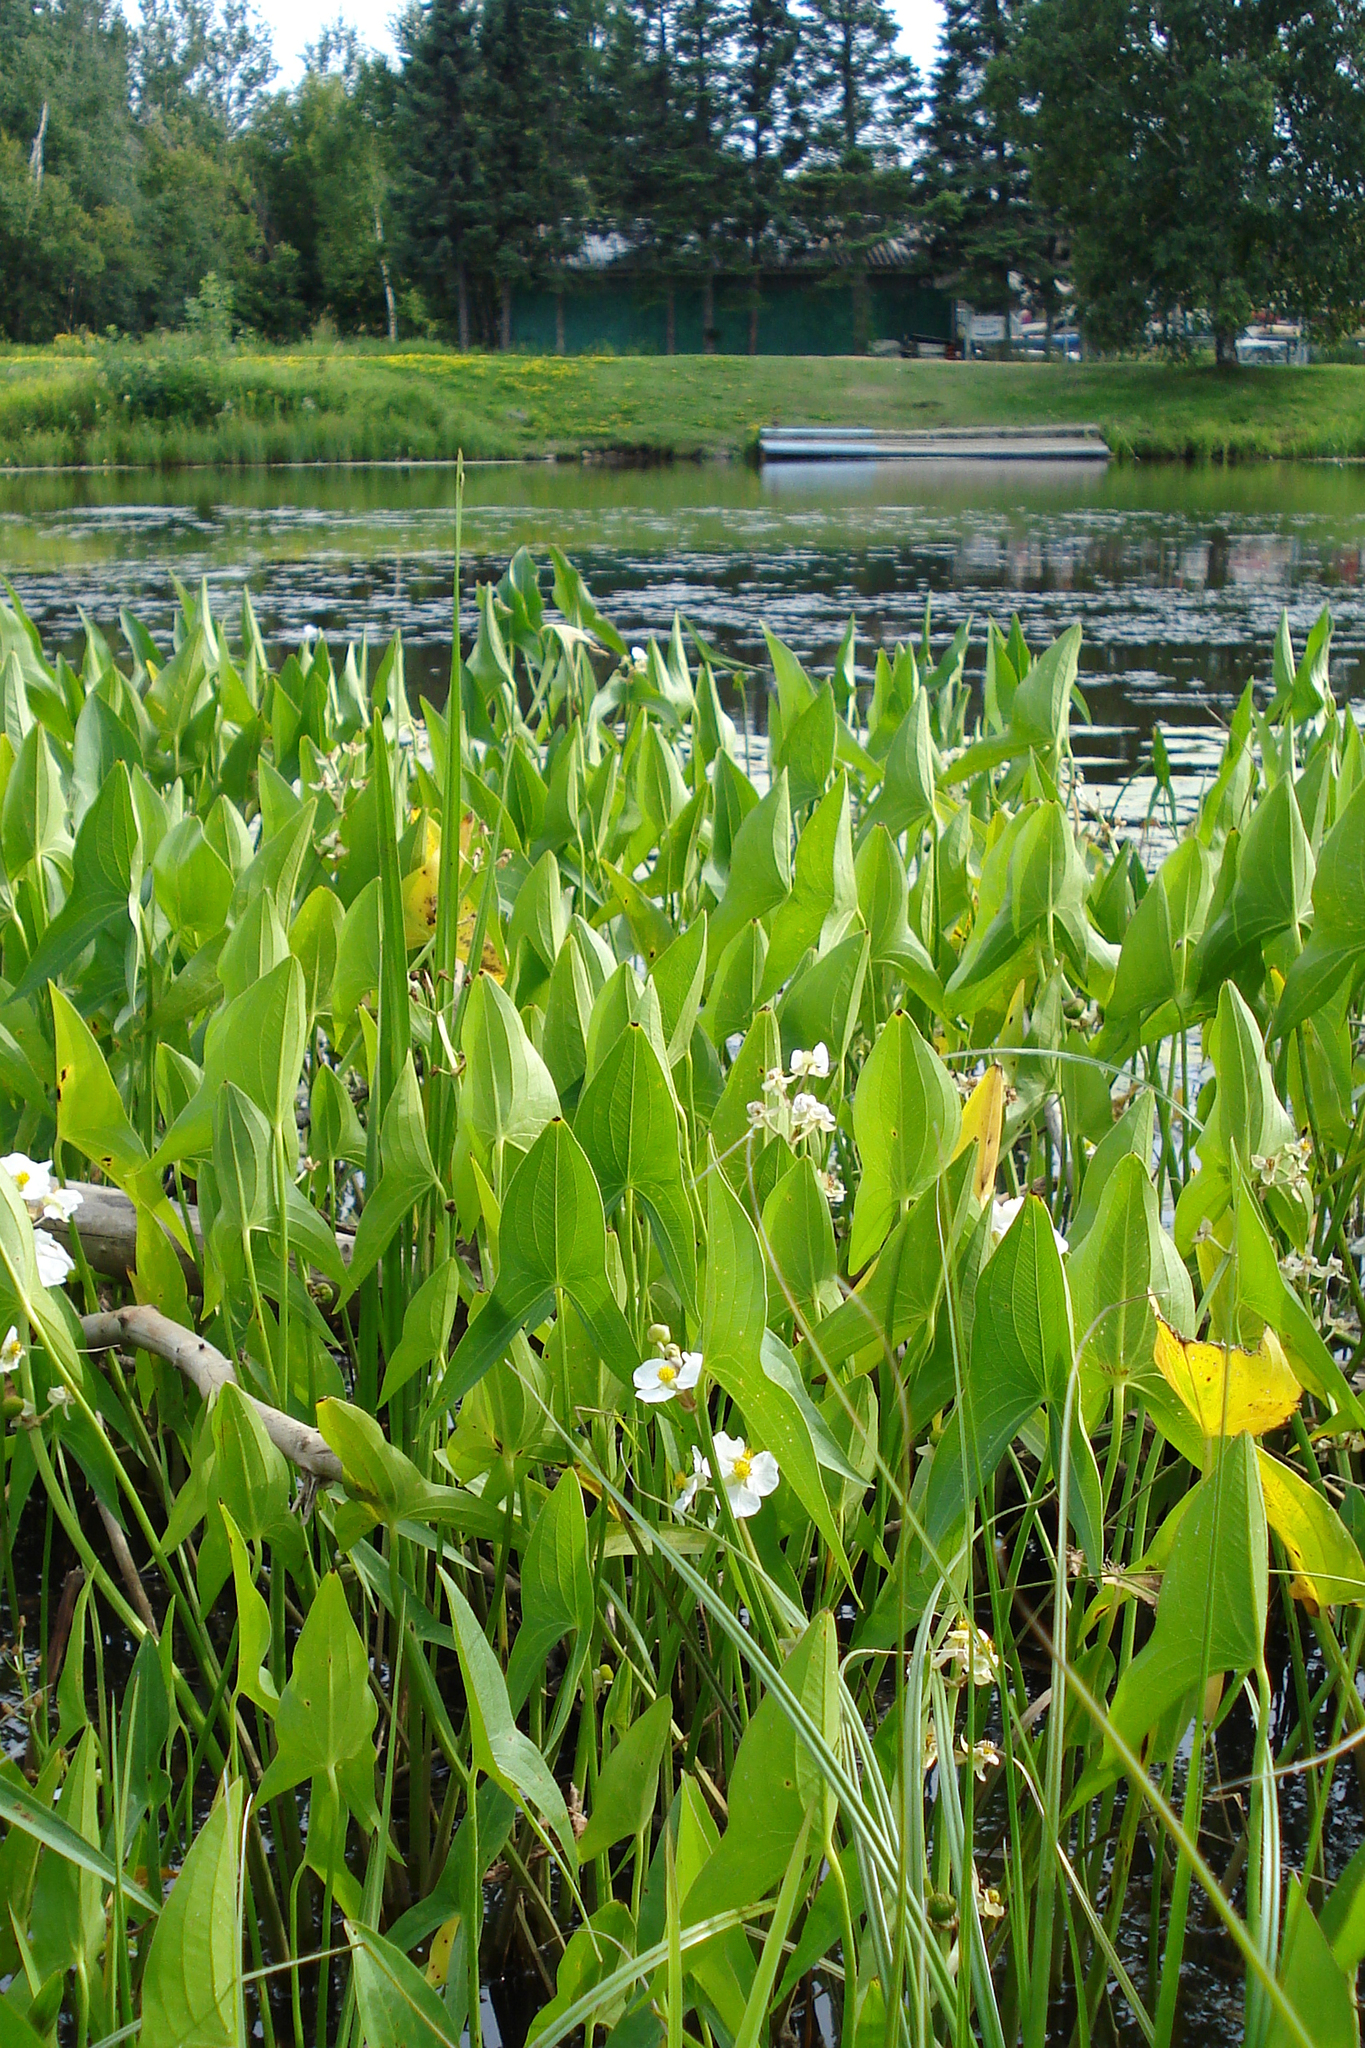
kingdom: Plantae
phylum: Tracheophyta
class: Liliopsida
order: Alismatales
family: Alismataceae
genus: Sagittaria
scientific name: Sagittaria latifolia
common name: Duck-potato
